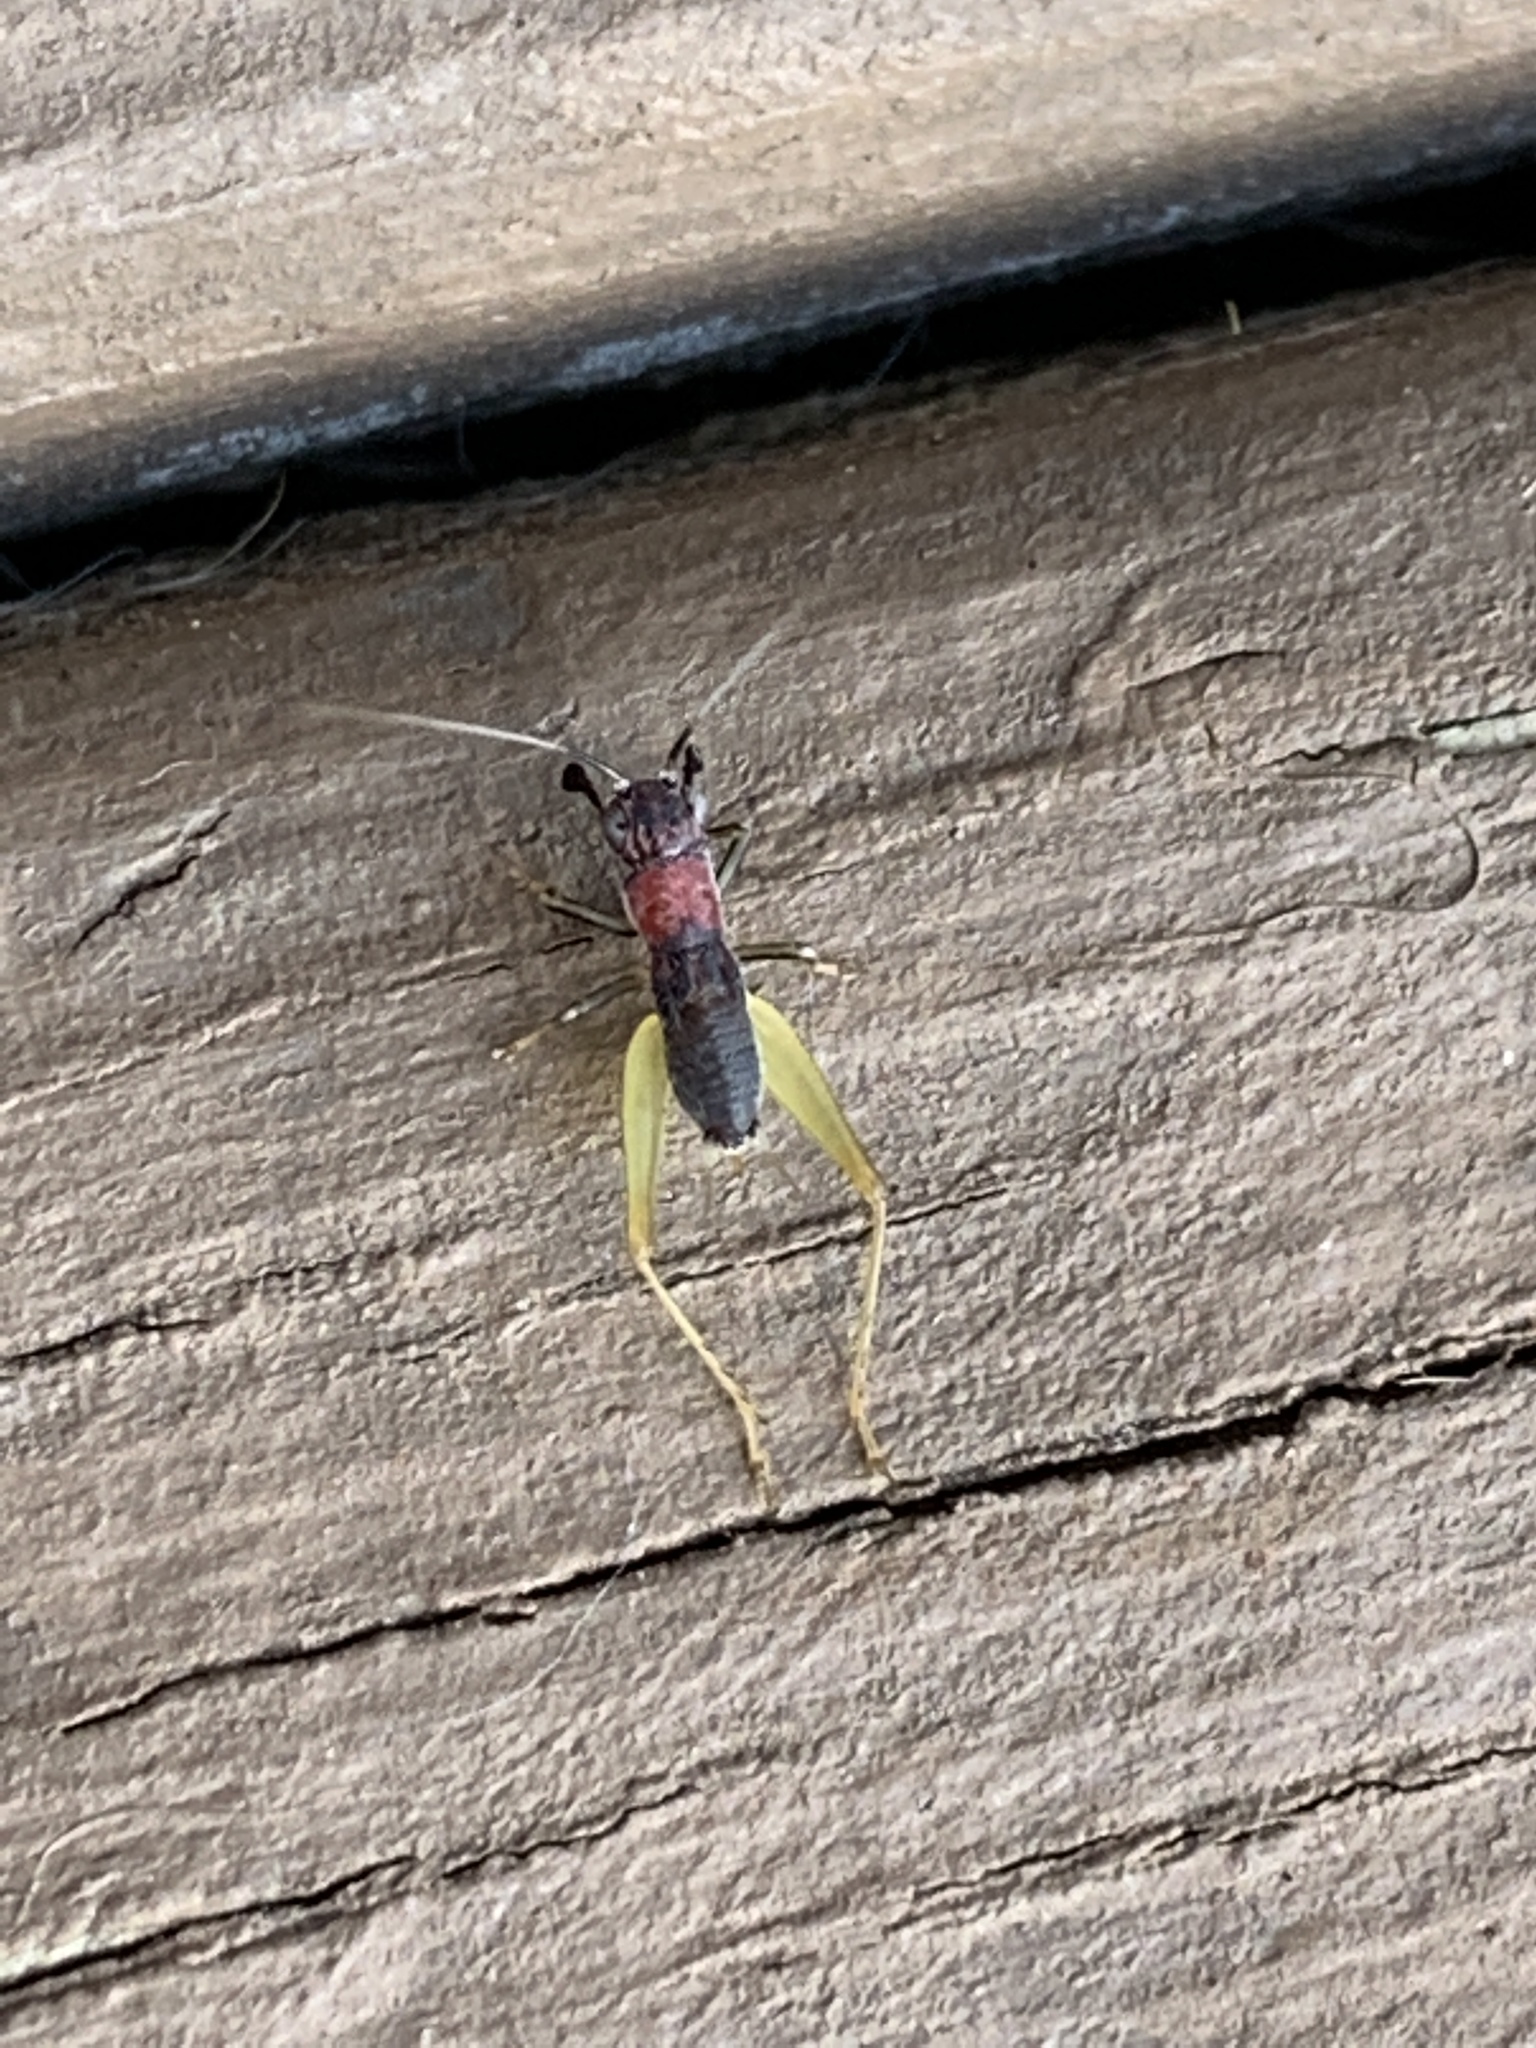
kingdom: Animalia
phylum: Arthropoda
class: Insecta
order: Orthoptera
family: Trigonidiidae
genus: Phyllopalpus
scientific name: Phyllopalpus pulchellus
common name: Handsome trig
